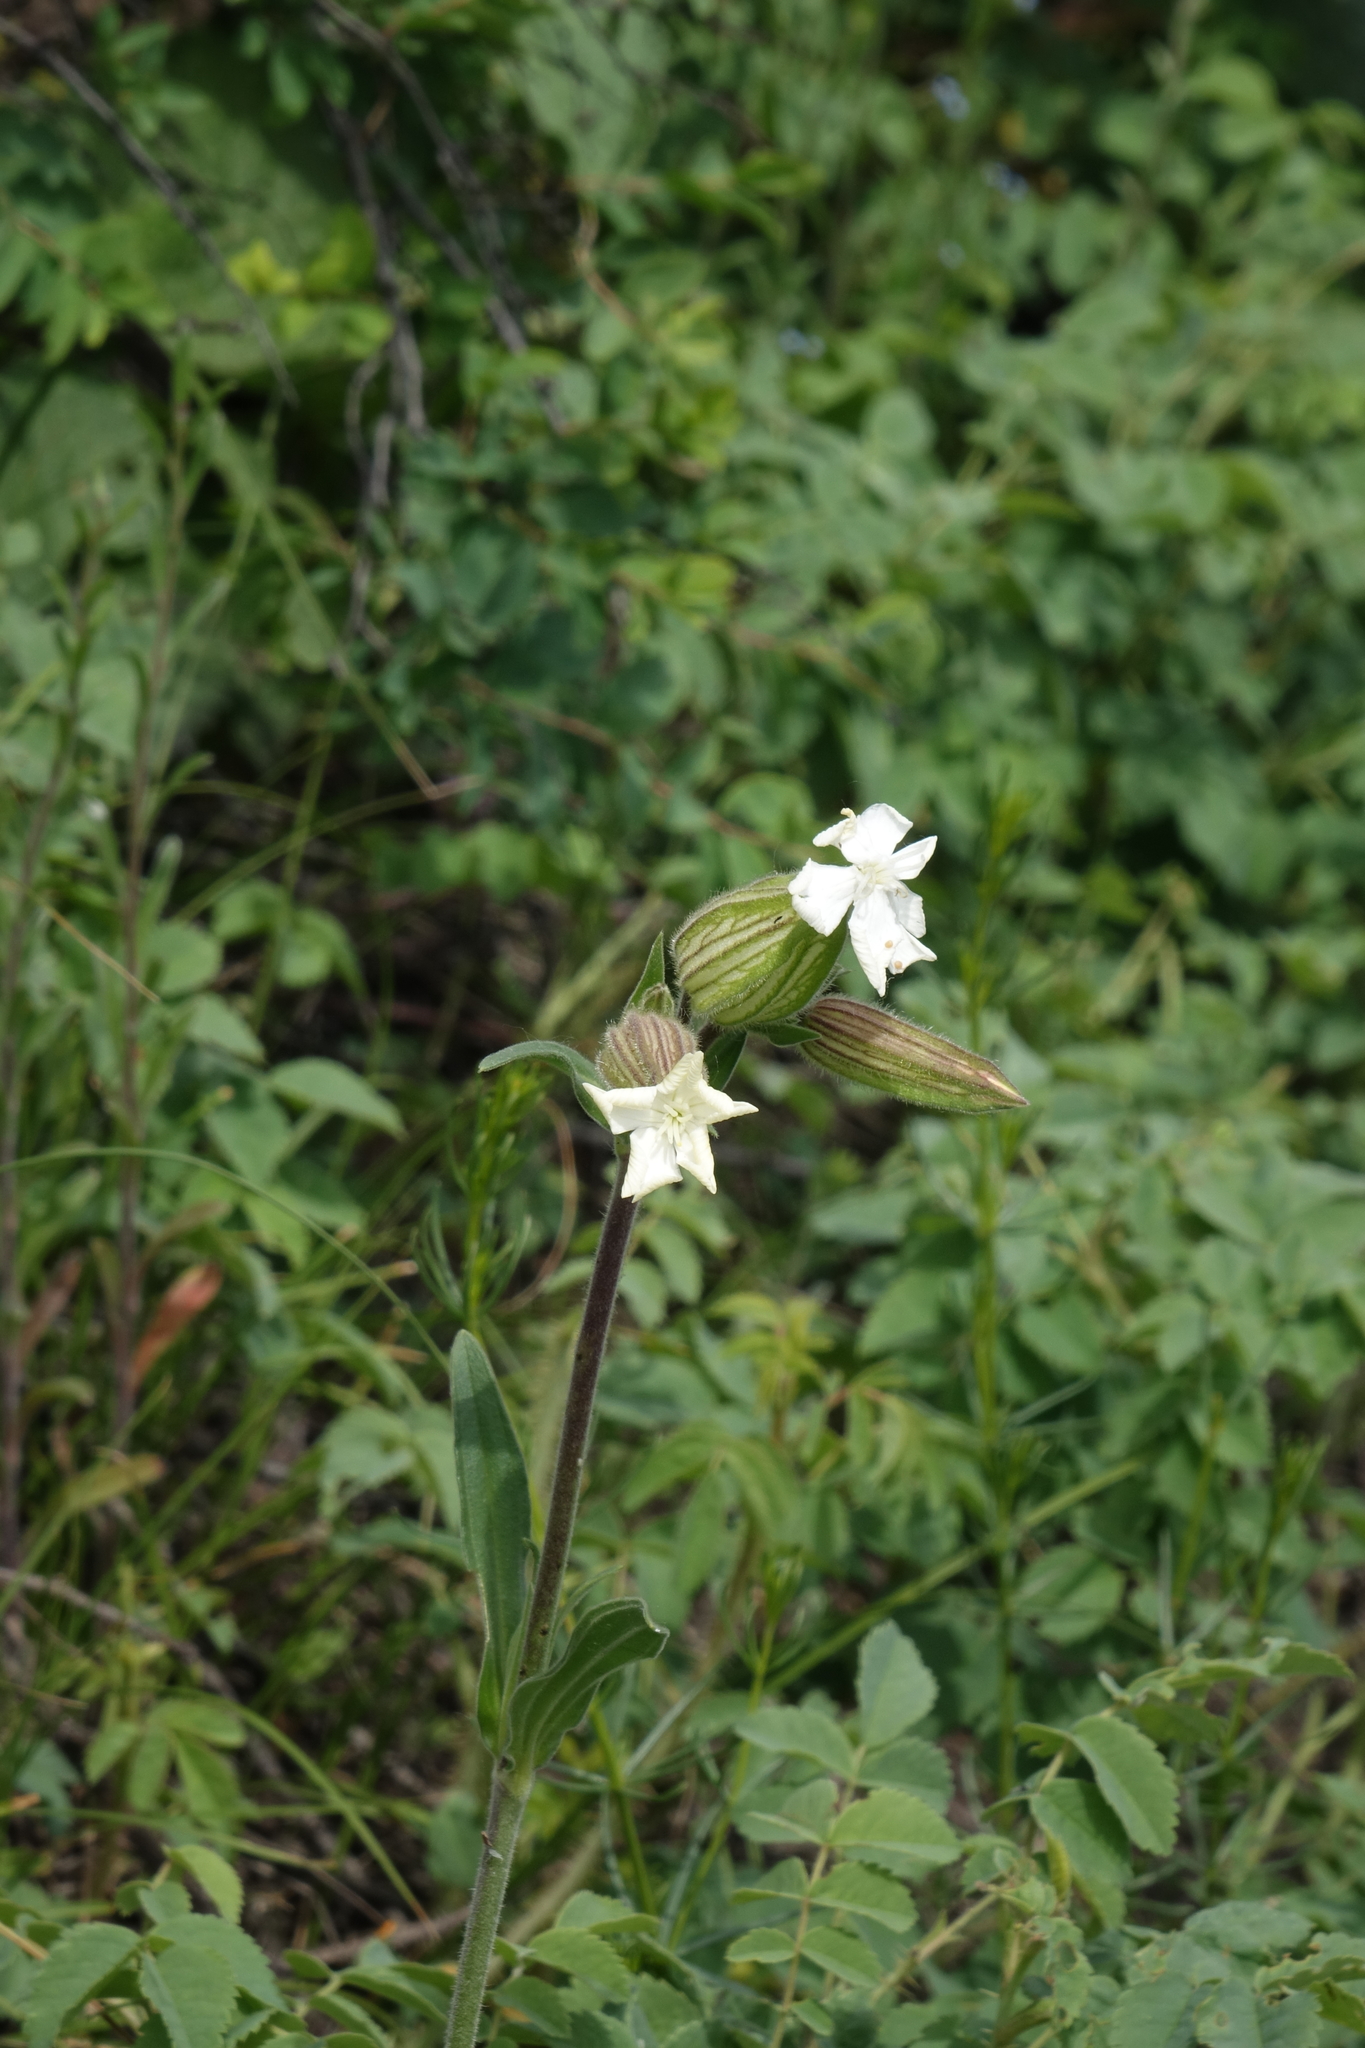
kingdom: Plantae
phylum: Tracheophyta
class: Magnoliopsida
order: Caryophyllales
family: Caryophyllaceae
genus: Silene
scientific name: Silene latifolia
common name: White campion
